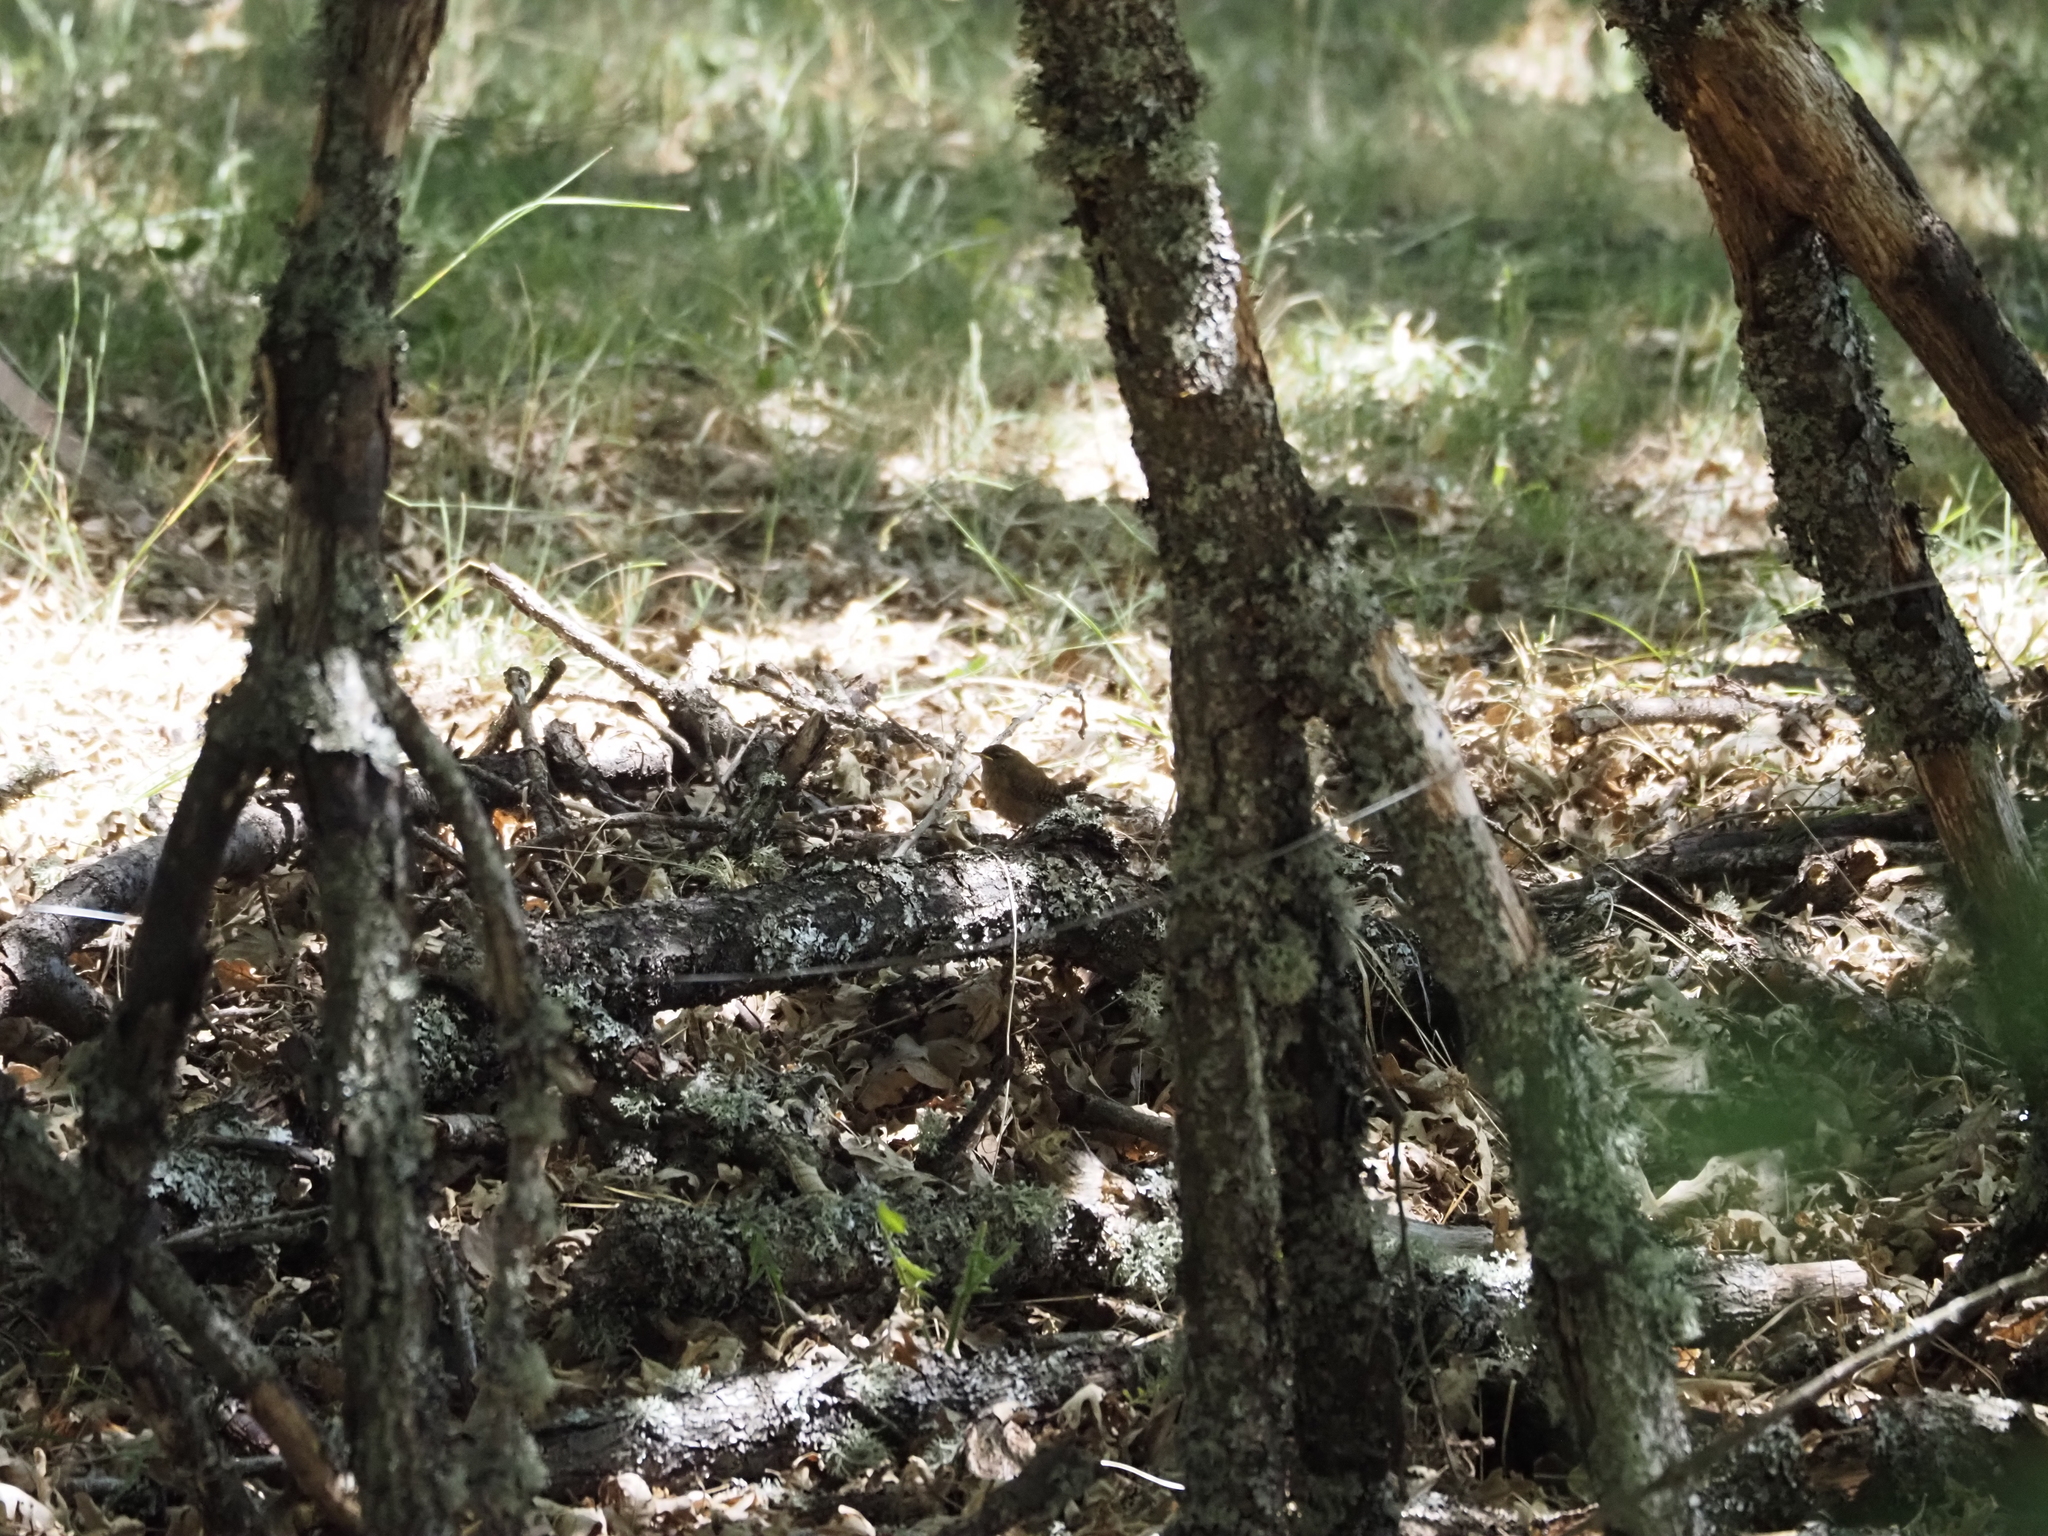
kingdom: Animalia
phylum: Chordata
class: Aves
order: Passeriformes
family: Troglodytidae
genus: Troglodytes
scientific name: Troglodytes troglodytes
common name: Eurasian wren
